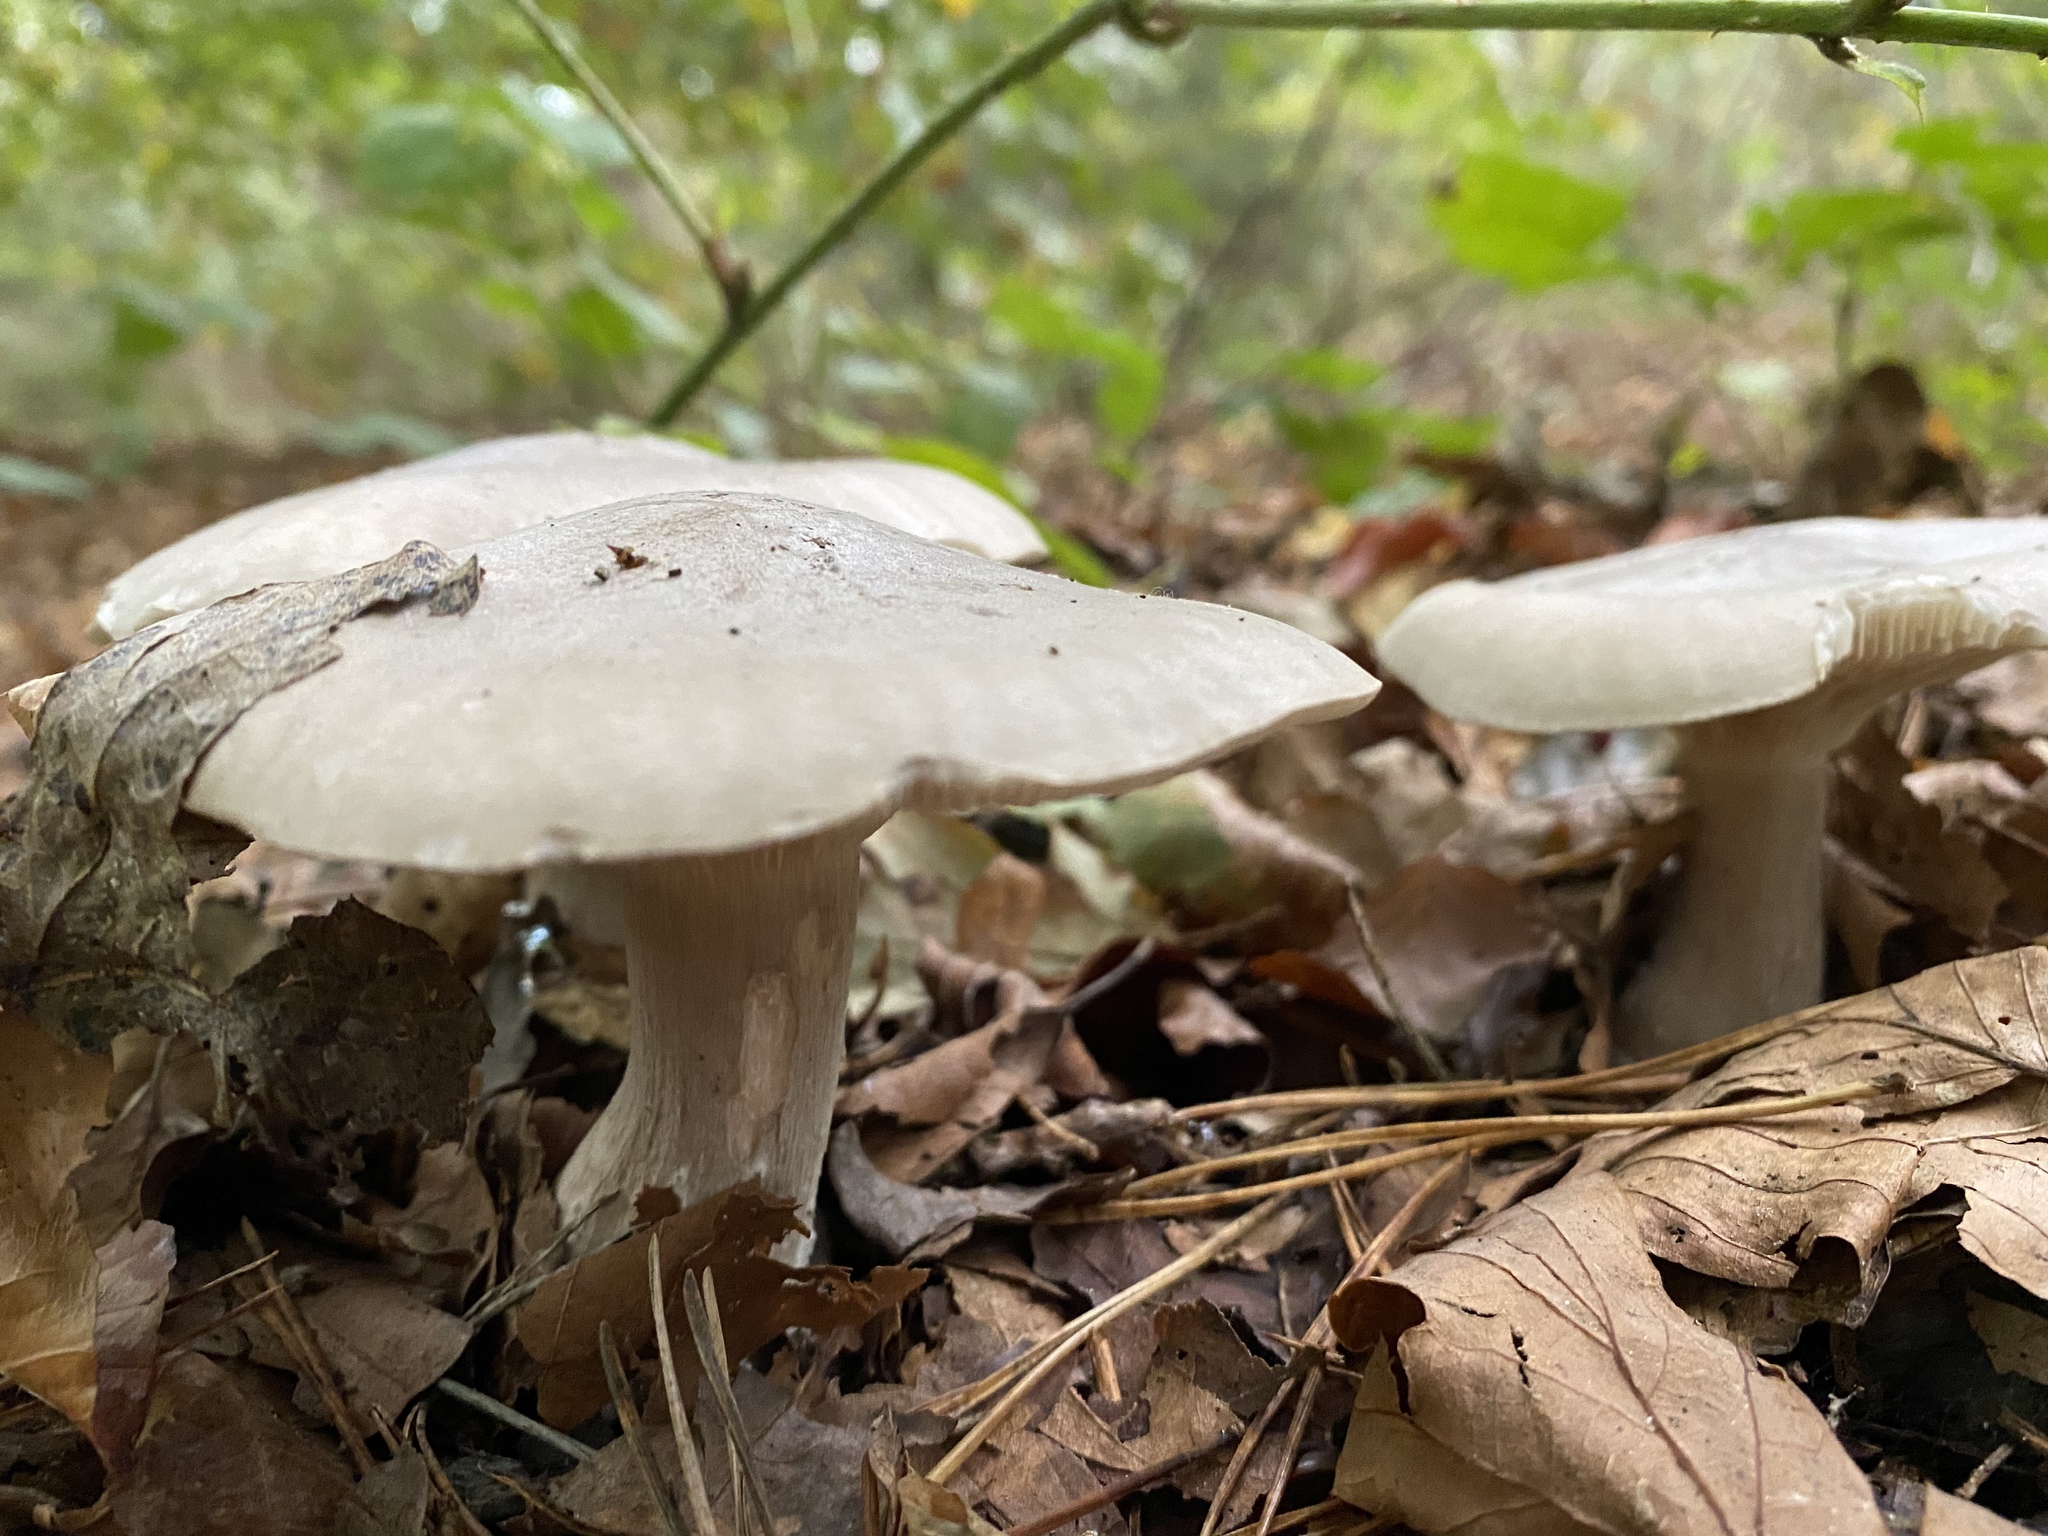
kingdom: Fungi
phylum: Basidiomycota
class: Agaricomycetes
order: Agaricales
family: Tricholomataceae
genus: Clitocybe
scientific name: Clitocybe nebularis
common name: Clouded agaric
